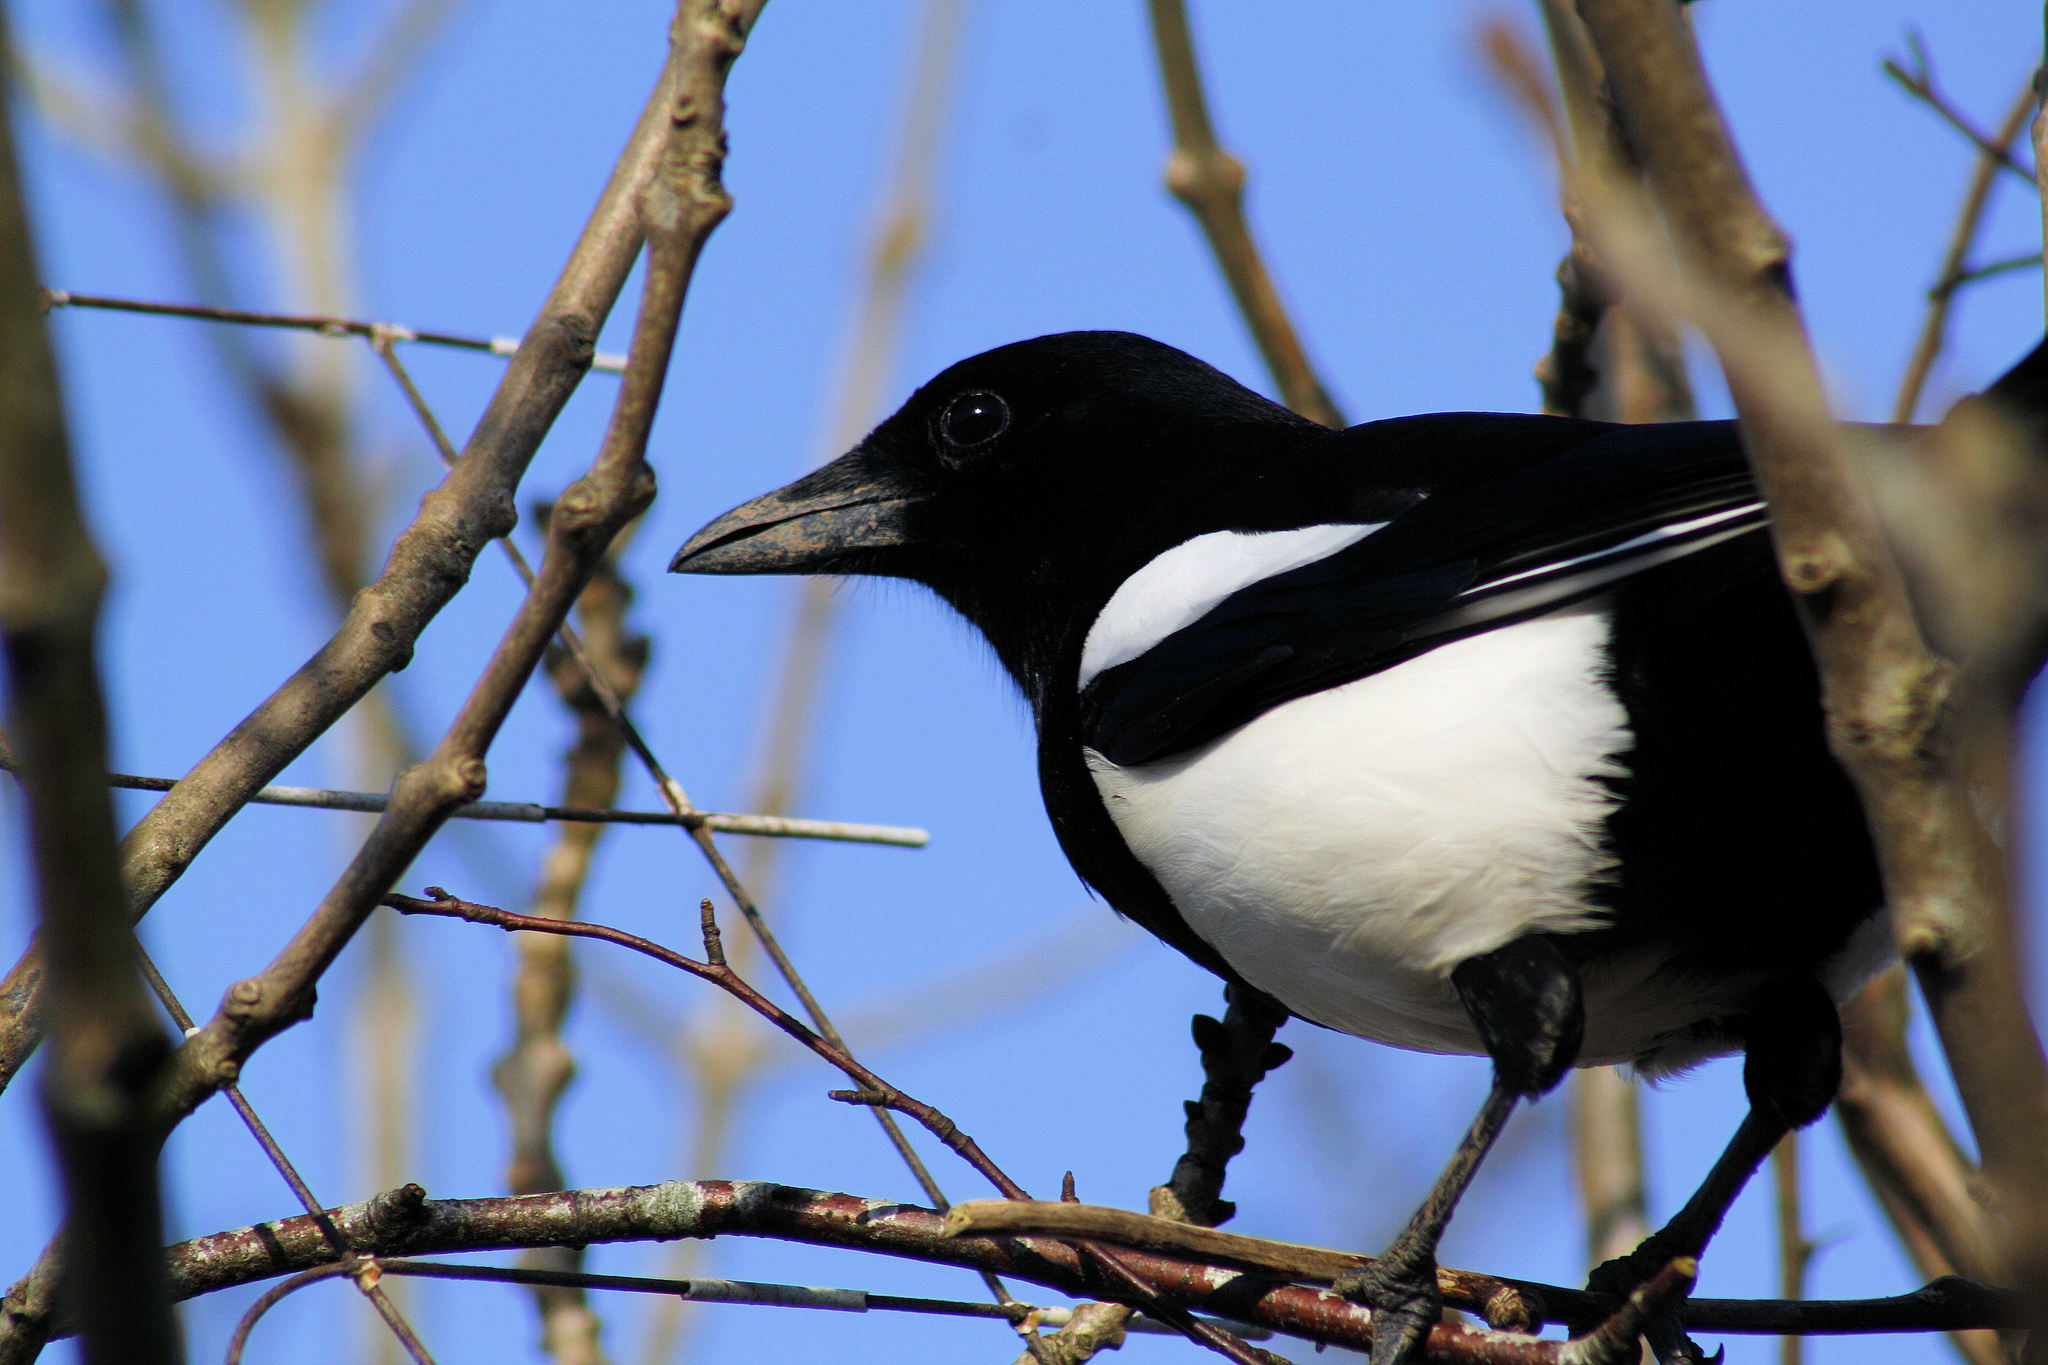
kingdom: Animalia
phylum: Chordata
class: Aves
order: Passeriformes
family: Corvidae
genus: Pica
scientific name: Pica pica
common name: Eurasian magpie
